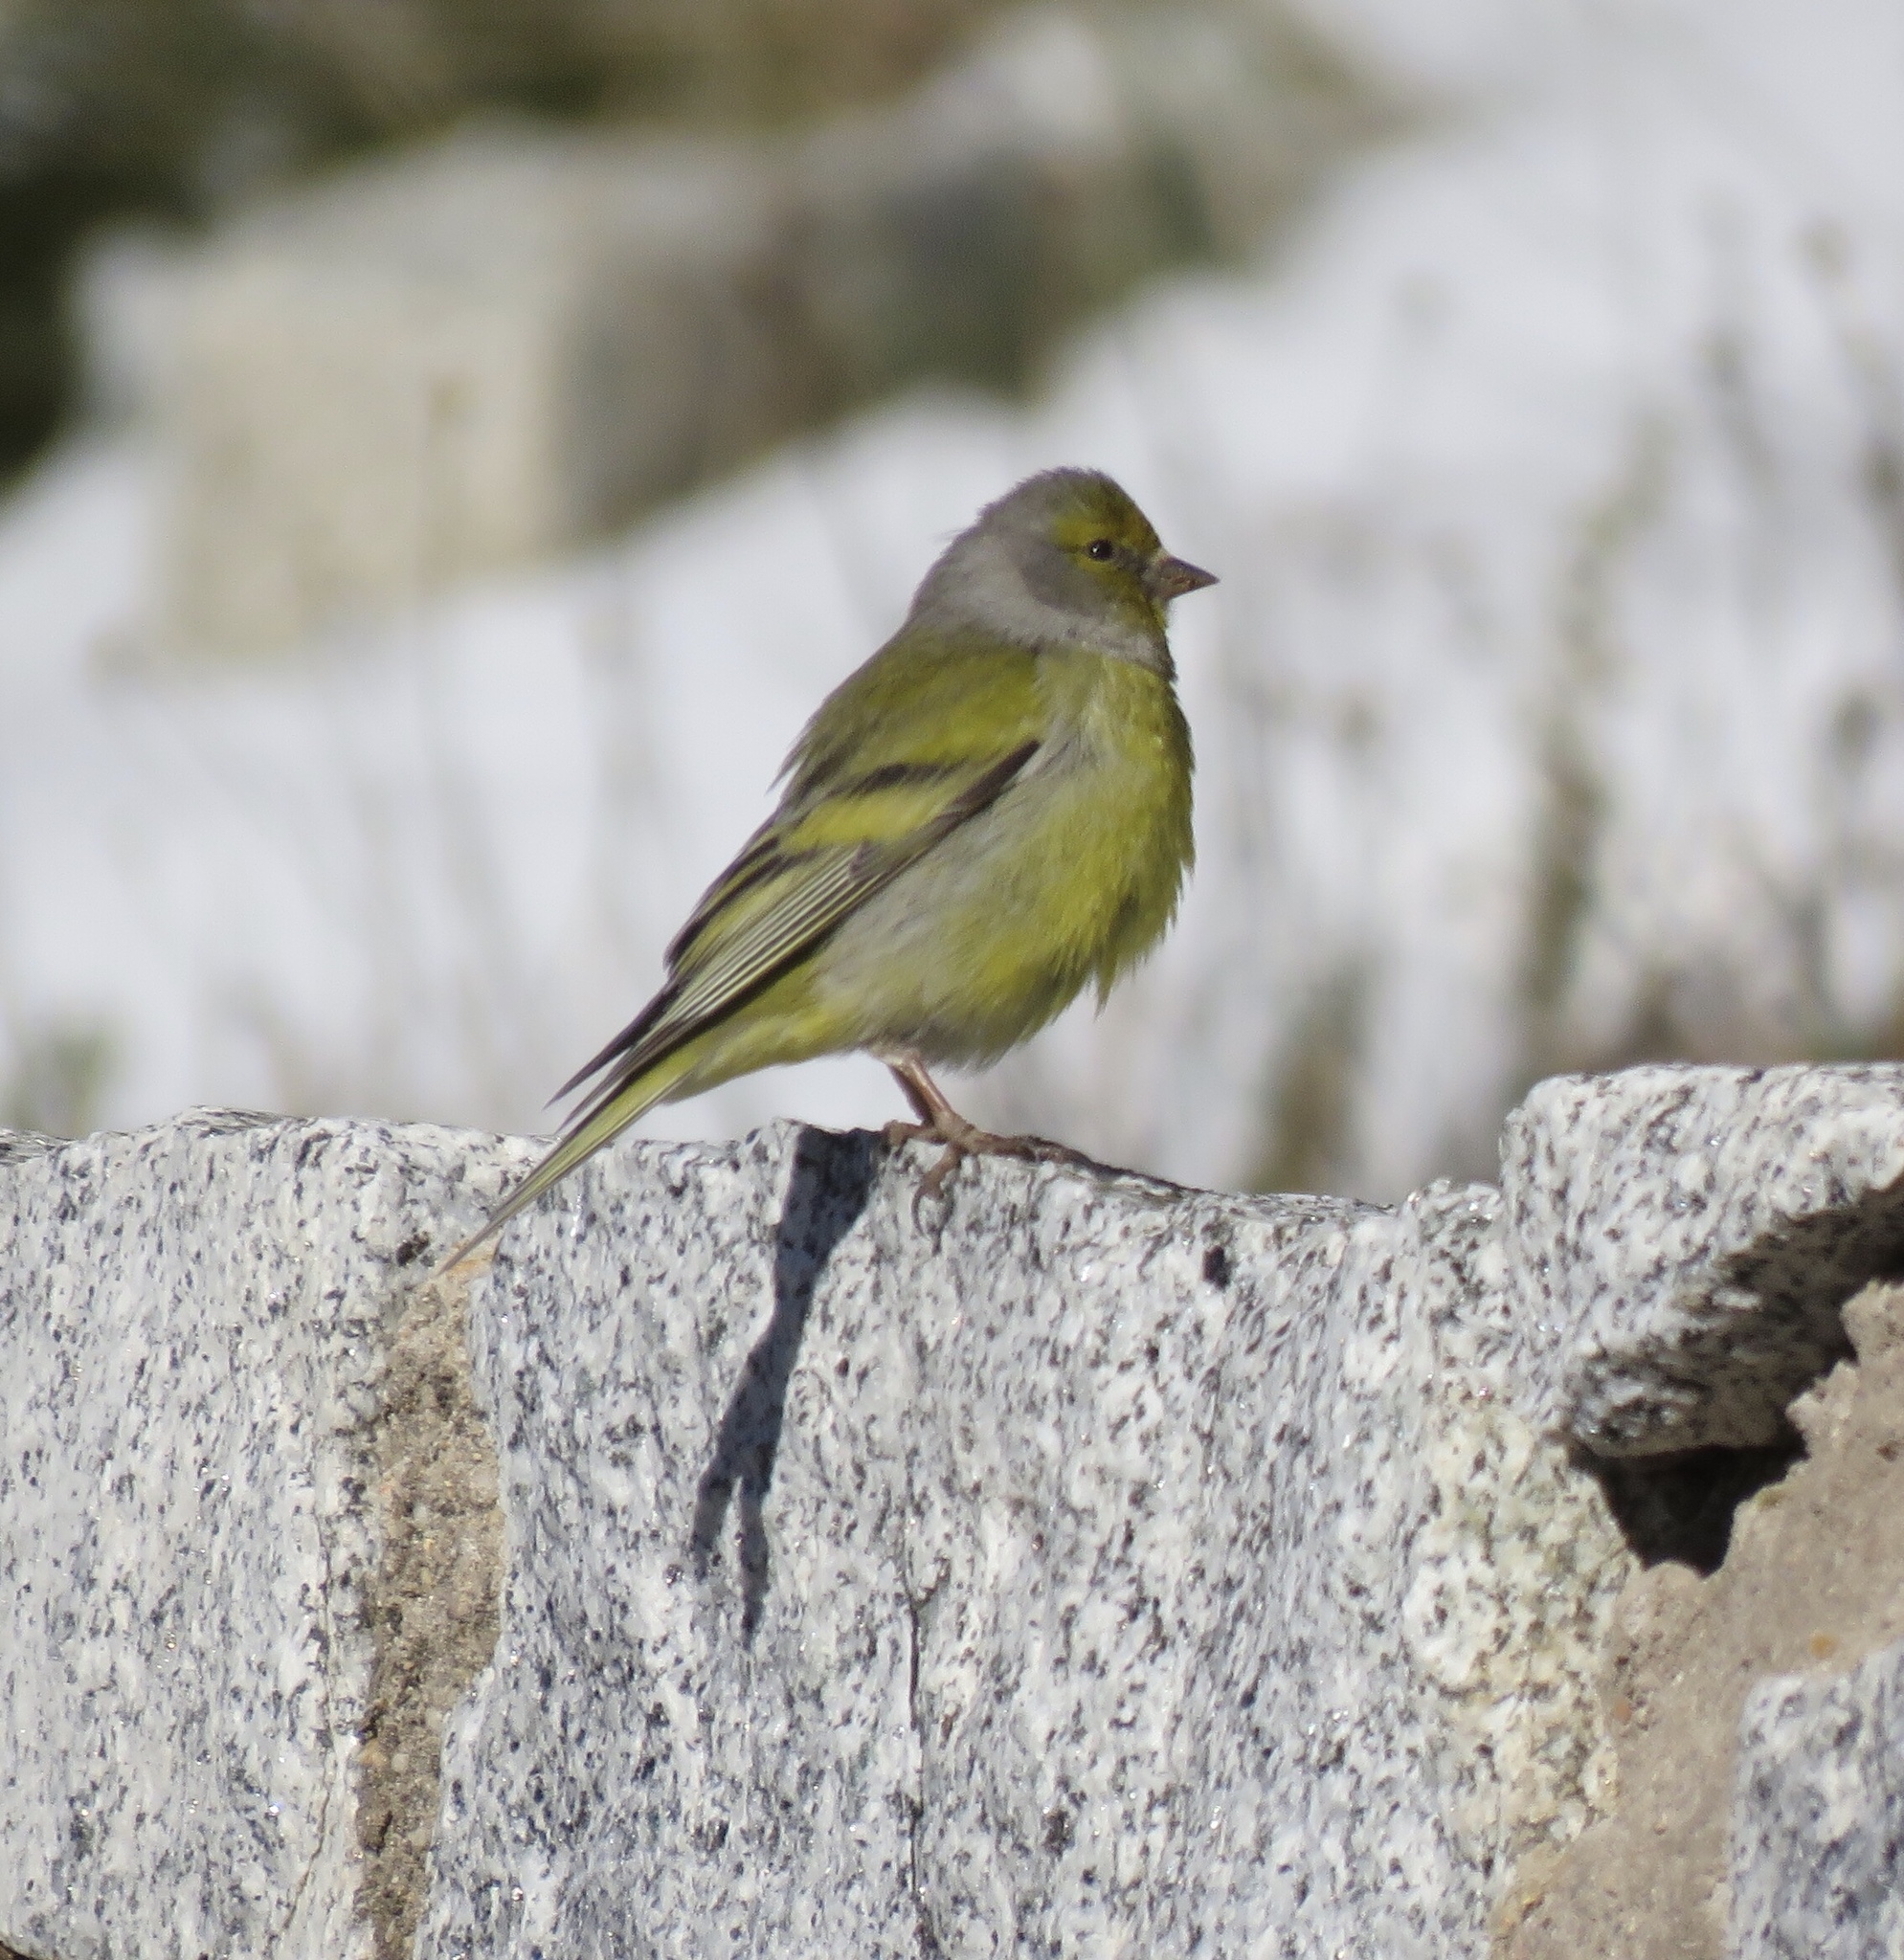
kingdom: Animalia
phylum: Chordata
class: Aves
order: Passeriformes
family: Fringillidae
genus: Carduelis
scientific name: Carduelis citrinella
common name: Citril finch
